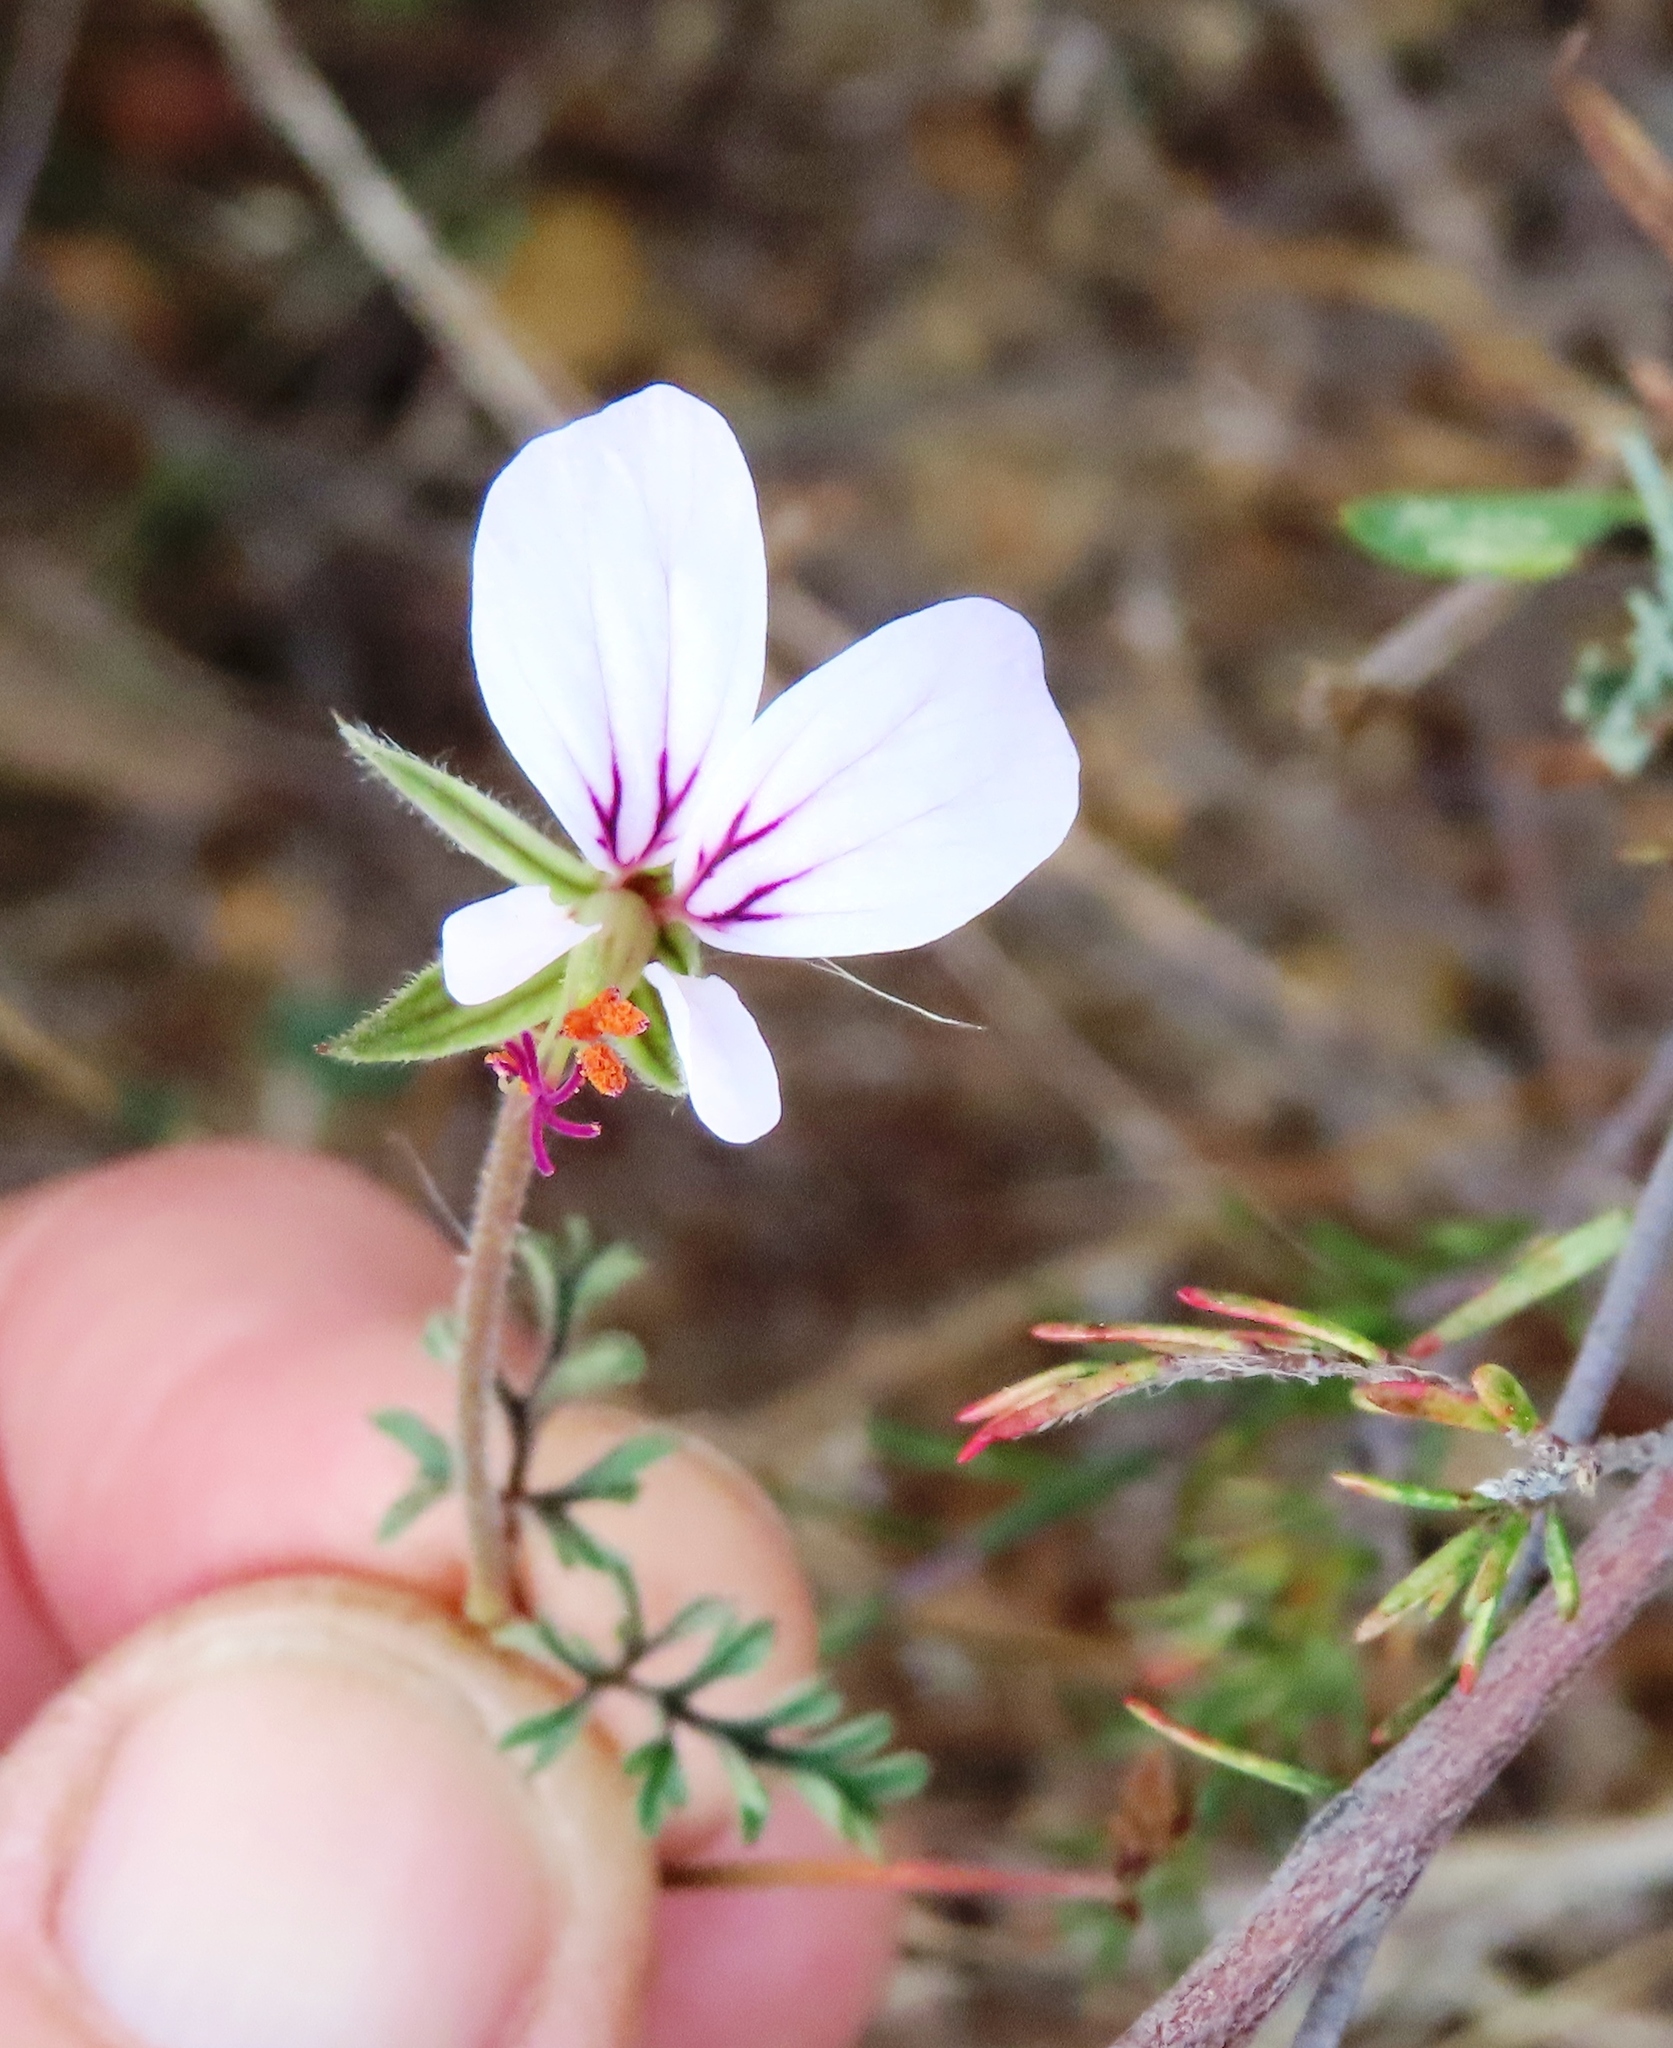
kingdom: Plantae
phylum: Tracheophyta
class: Magnoliopsida
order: Geraniales
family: Geraniaceae
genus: Pelargonium
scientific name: Pelargonium myrrhifolium
